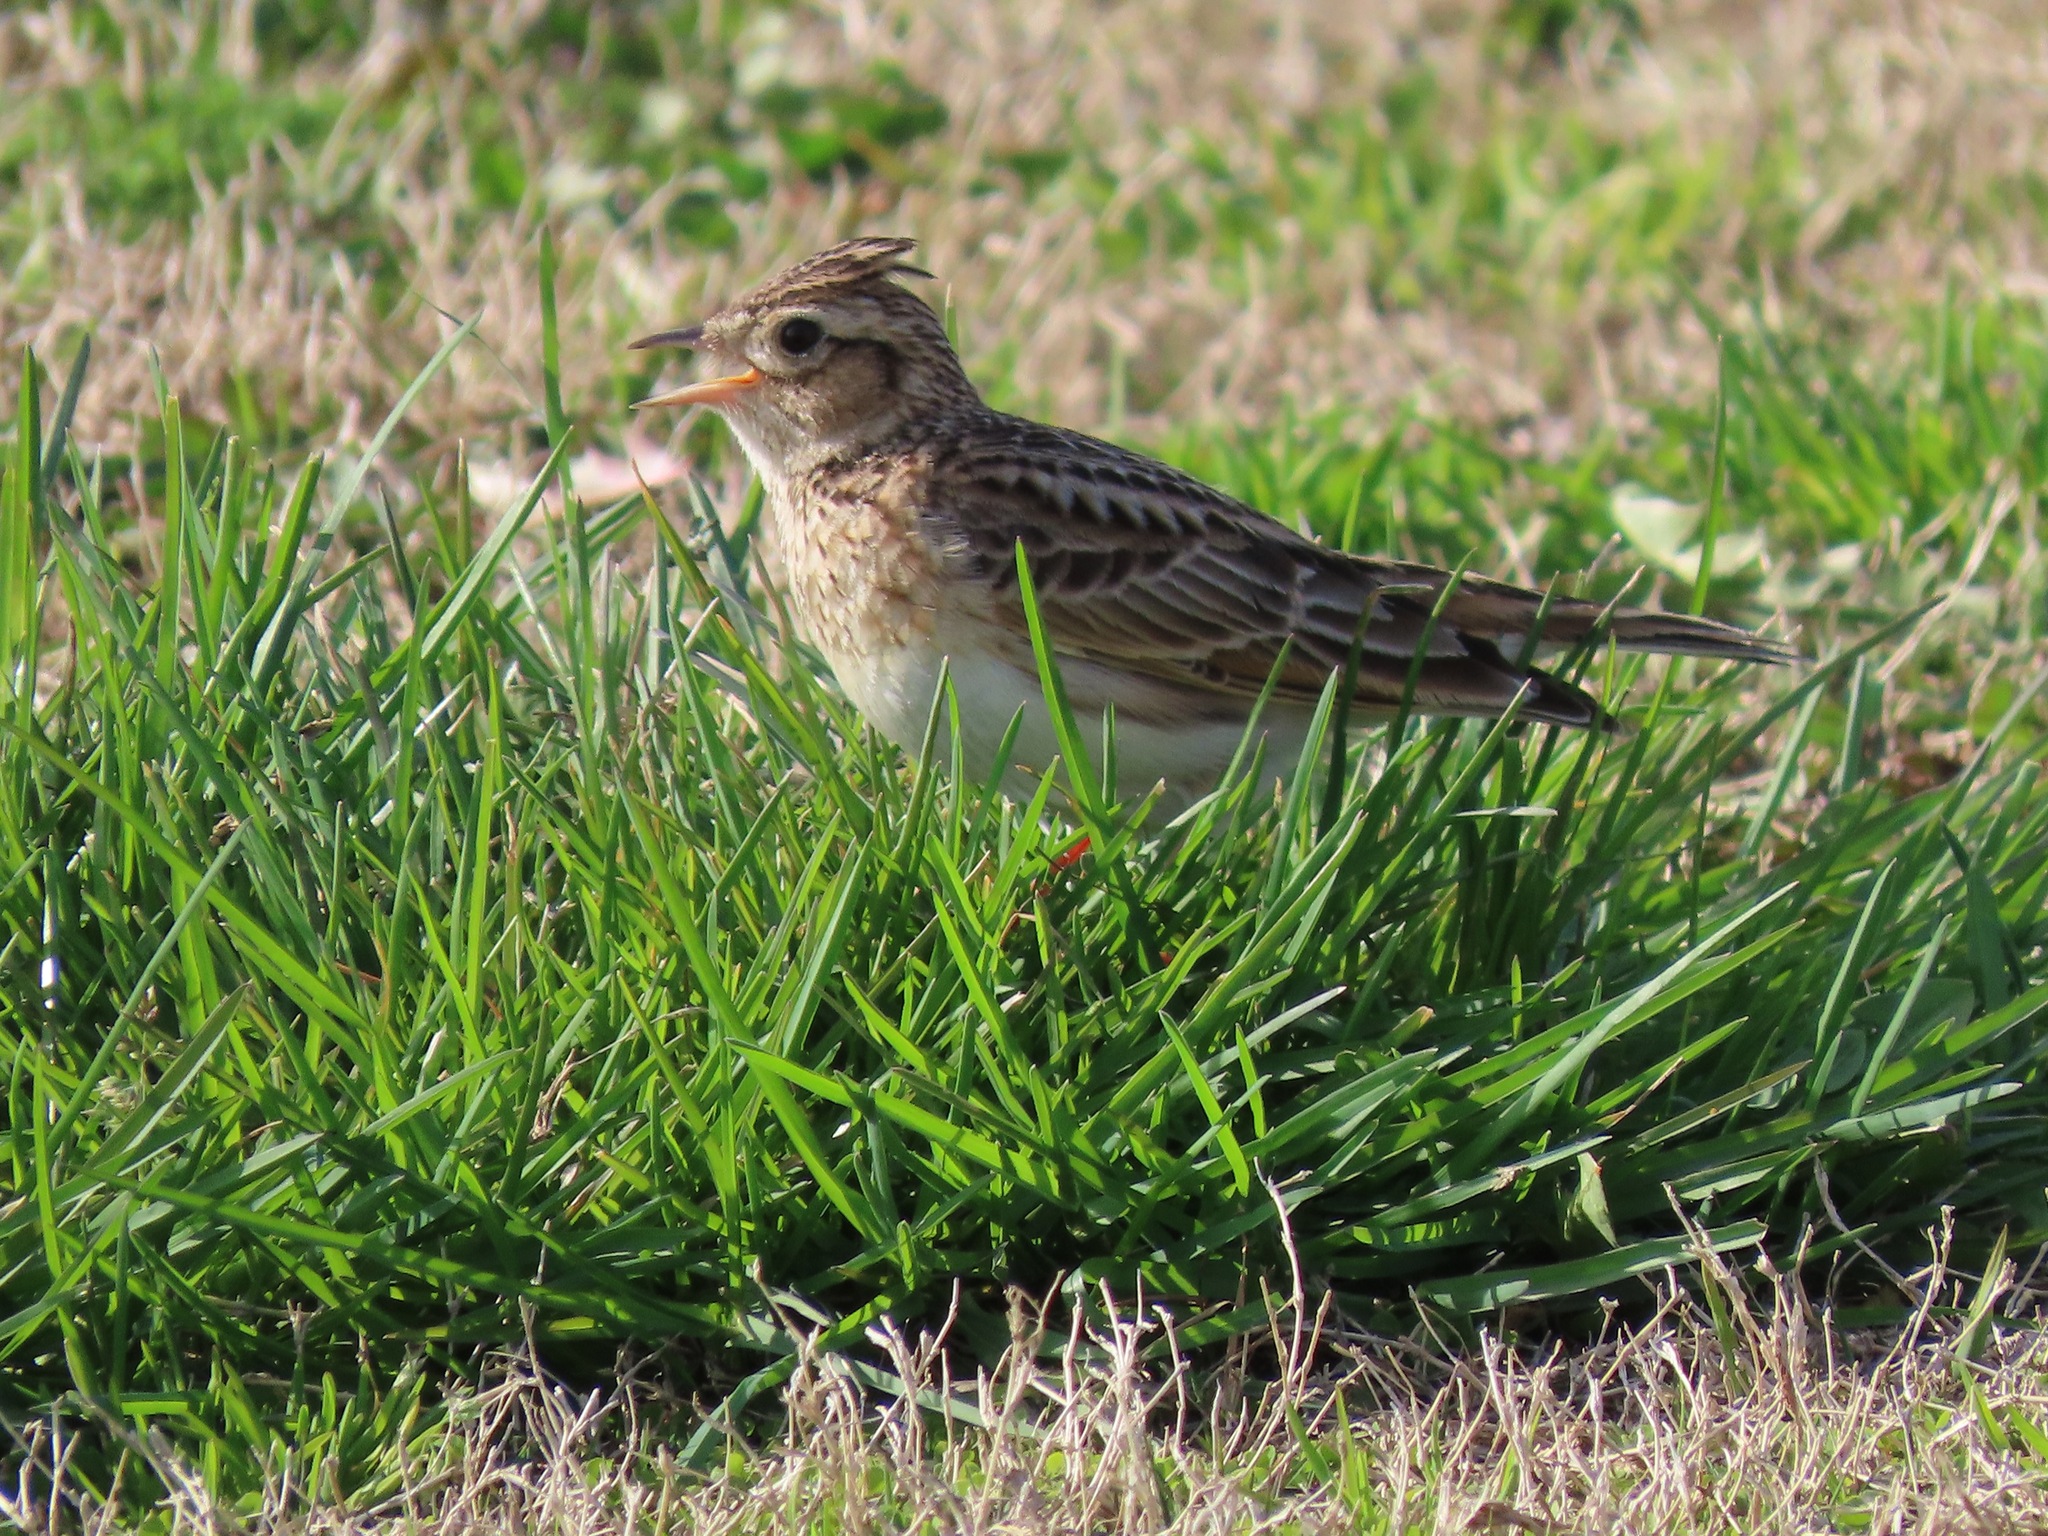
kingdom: Animalia
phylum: Chordata
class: Aves
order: Passeriformes
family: Alaudidae
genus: Alauda
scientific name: Alauda arvensis
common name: Eurasian skylark
